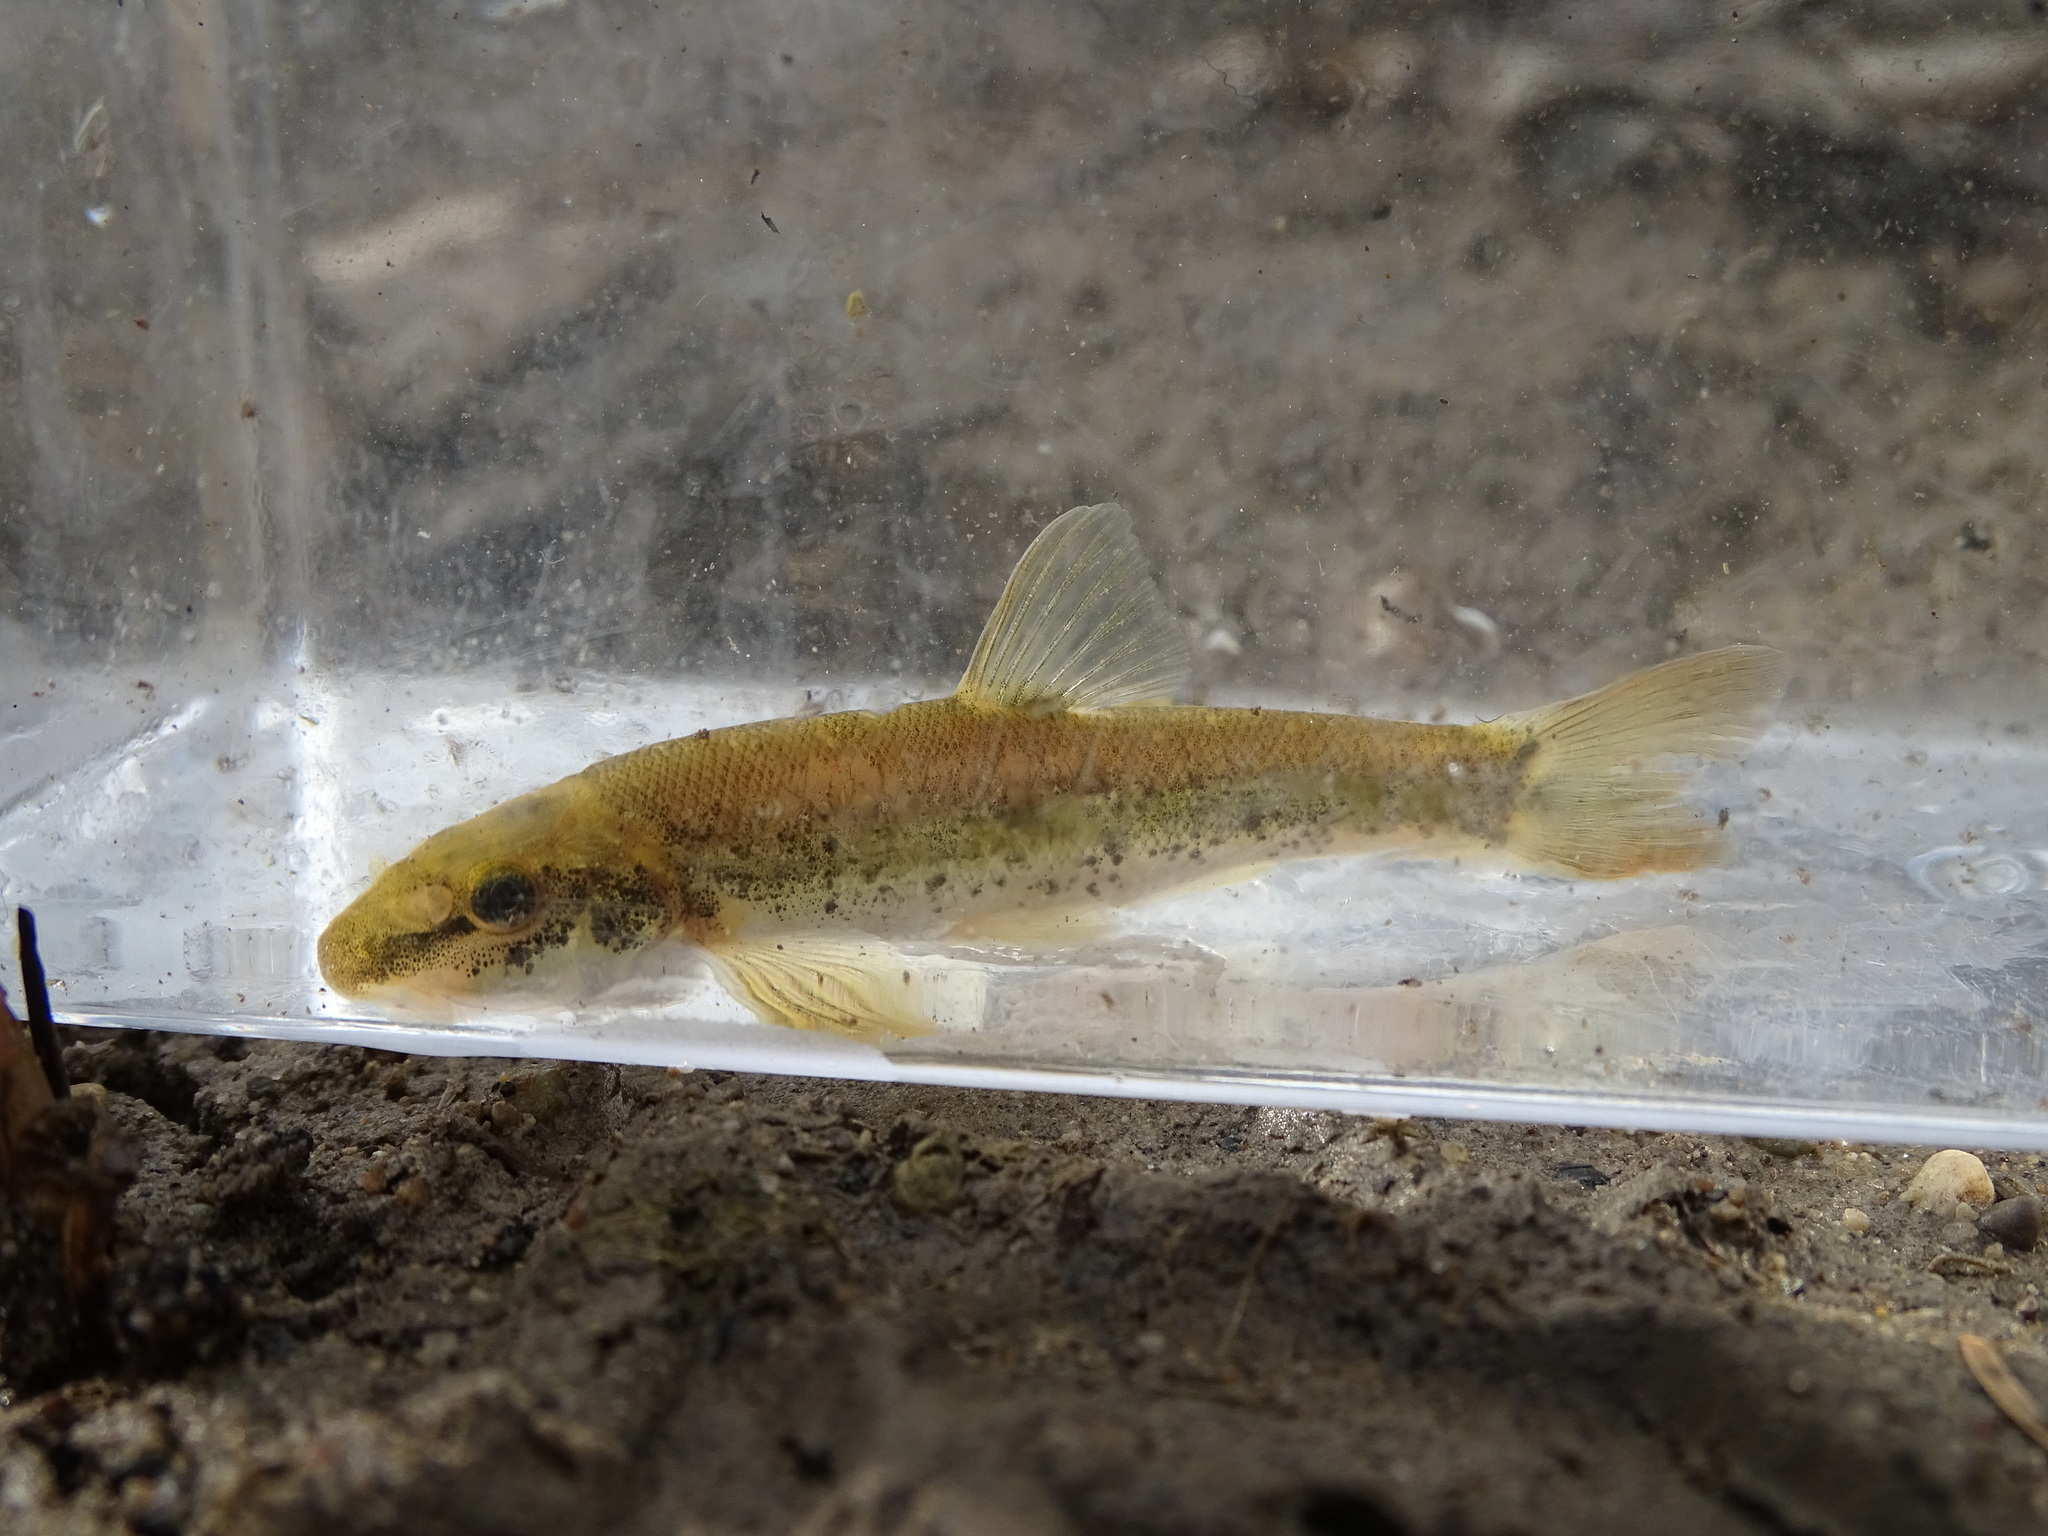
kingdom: Animalia
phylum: Chordata
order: Cypriniformes
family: Cyprinidae
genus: Rhinichthys
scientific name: Rhinichthys cataractae
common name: Longnose dace
